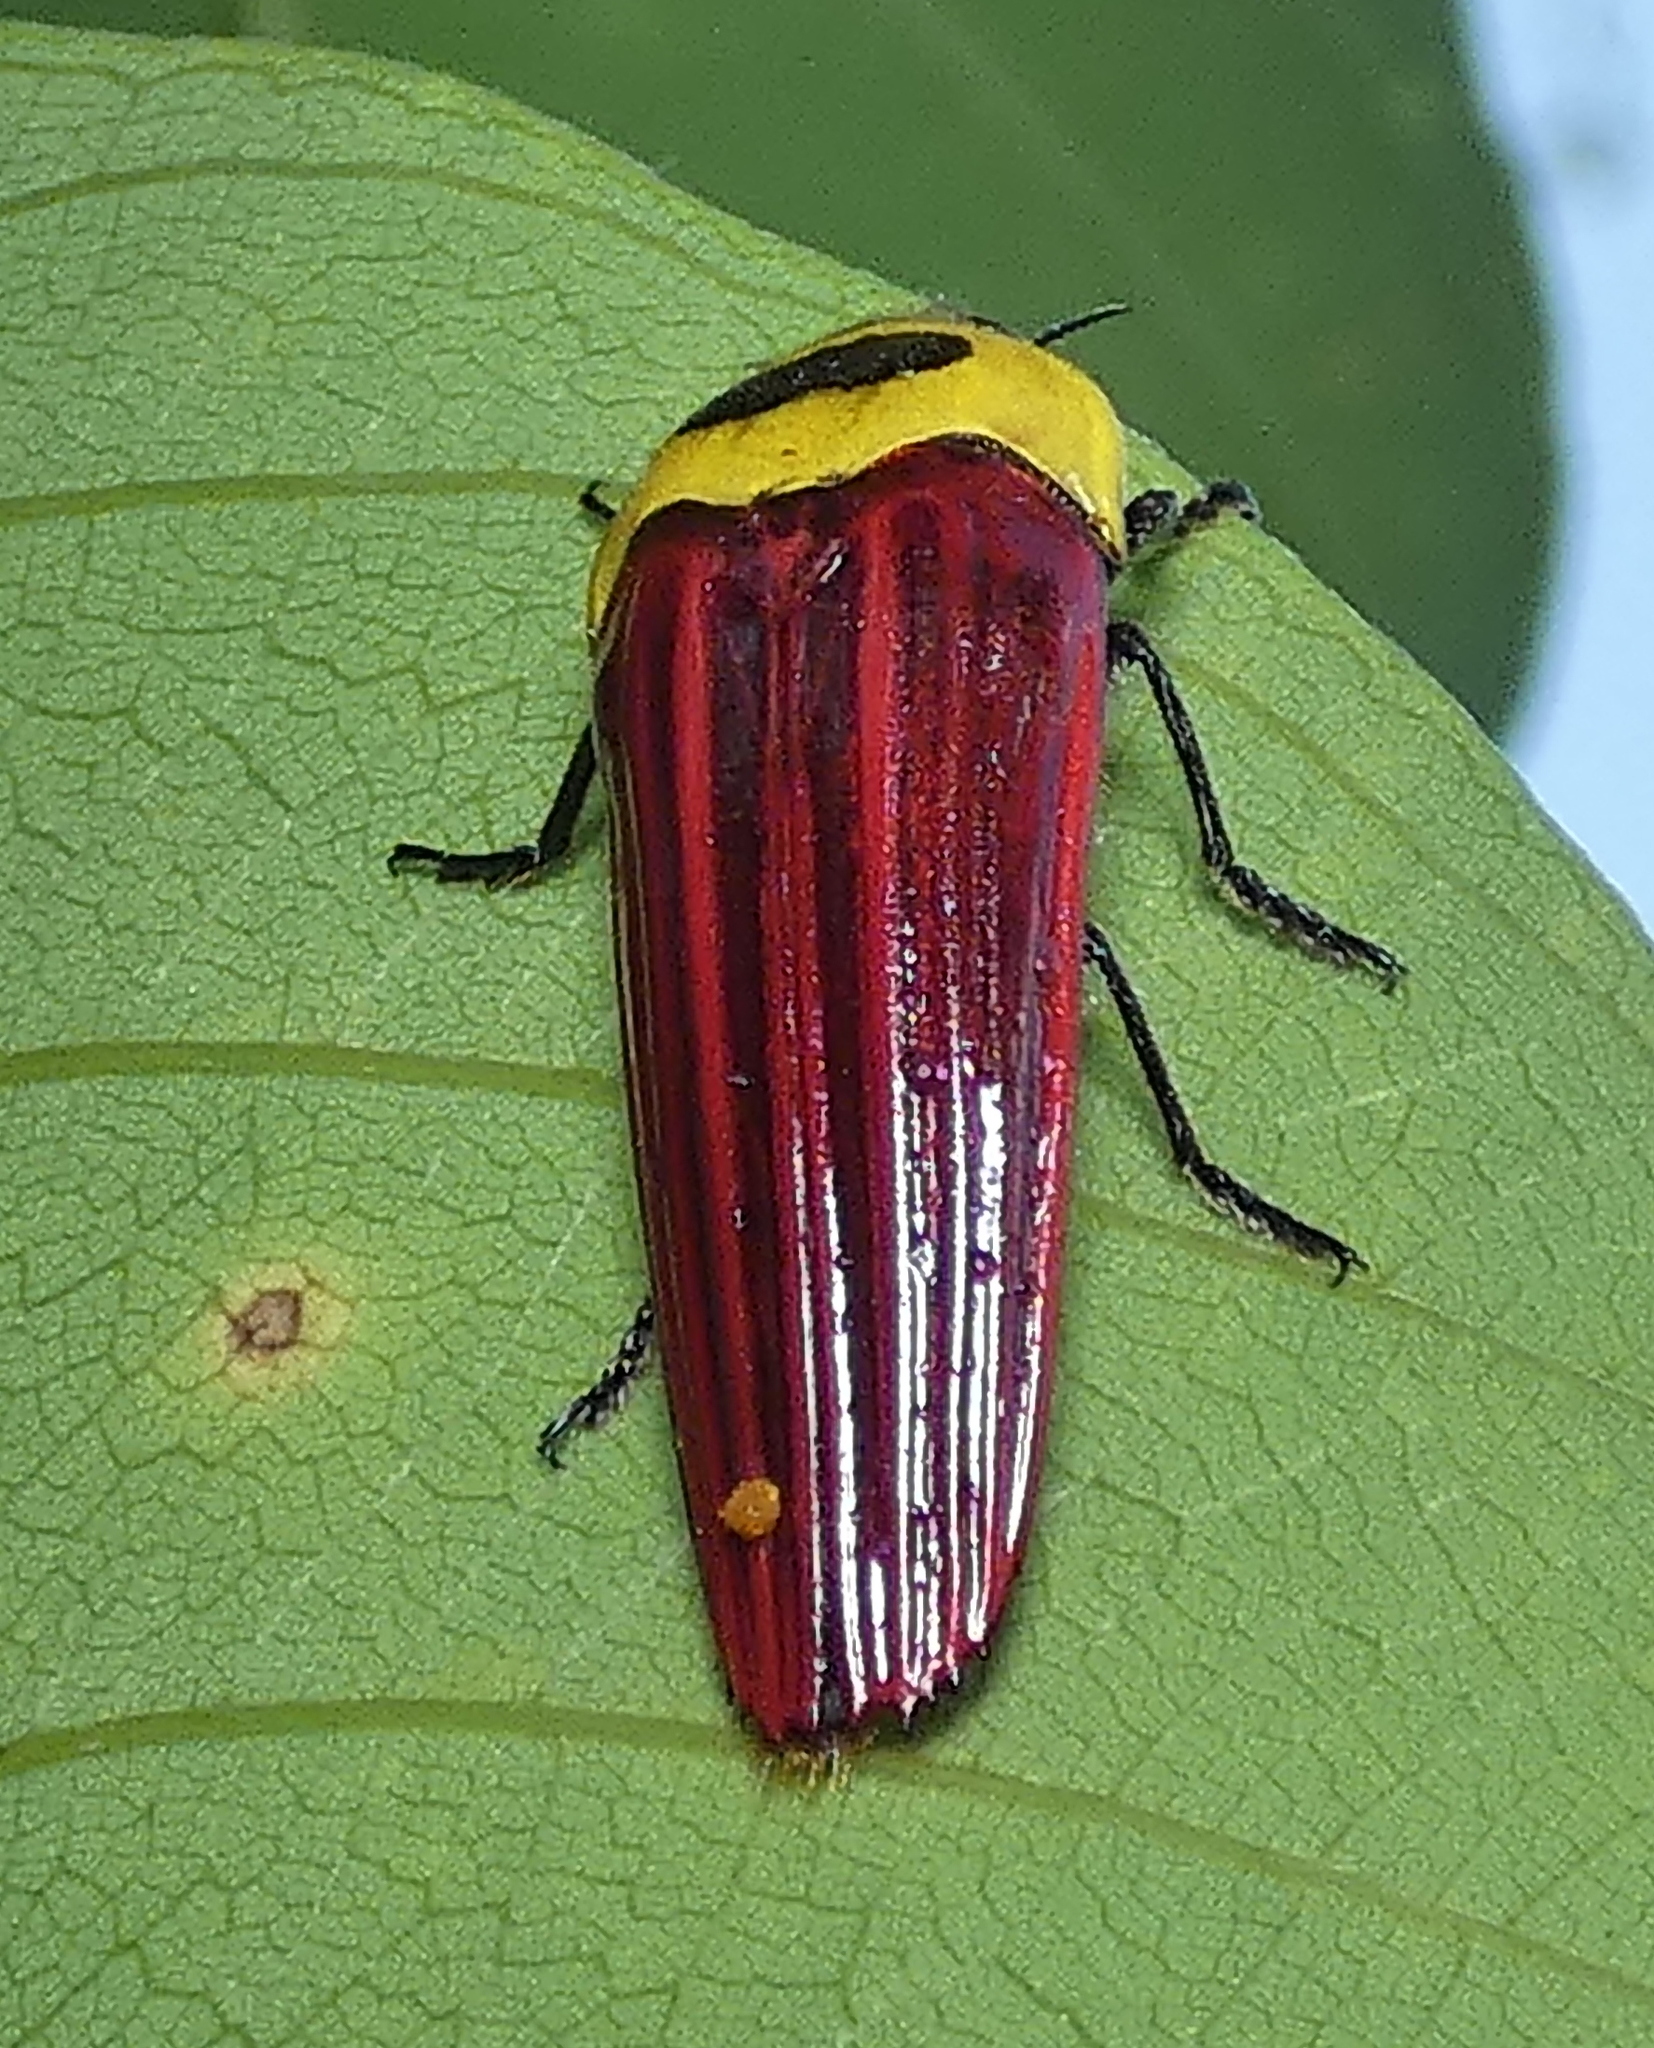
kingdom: Animalia
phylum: Arthropoda
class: Insecta
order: Coleoptera
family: Buprestidae
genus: Hiperantha
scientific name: Hiperantha decorata
